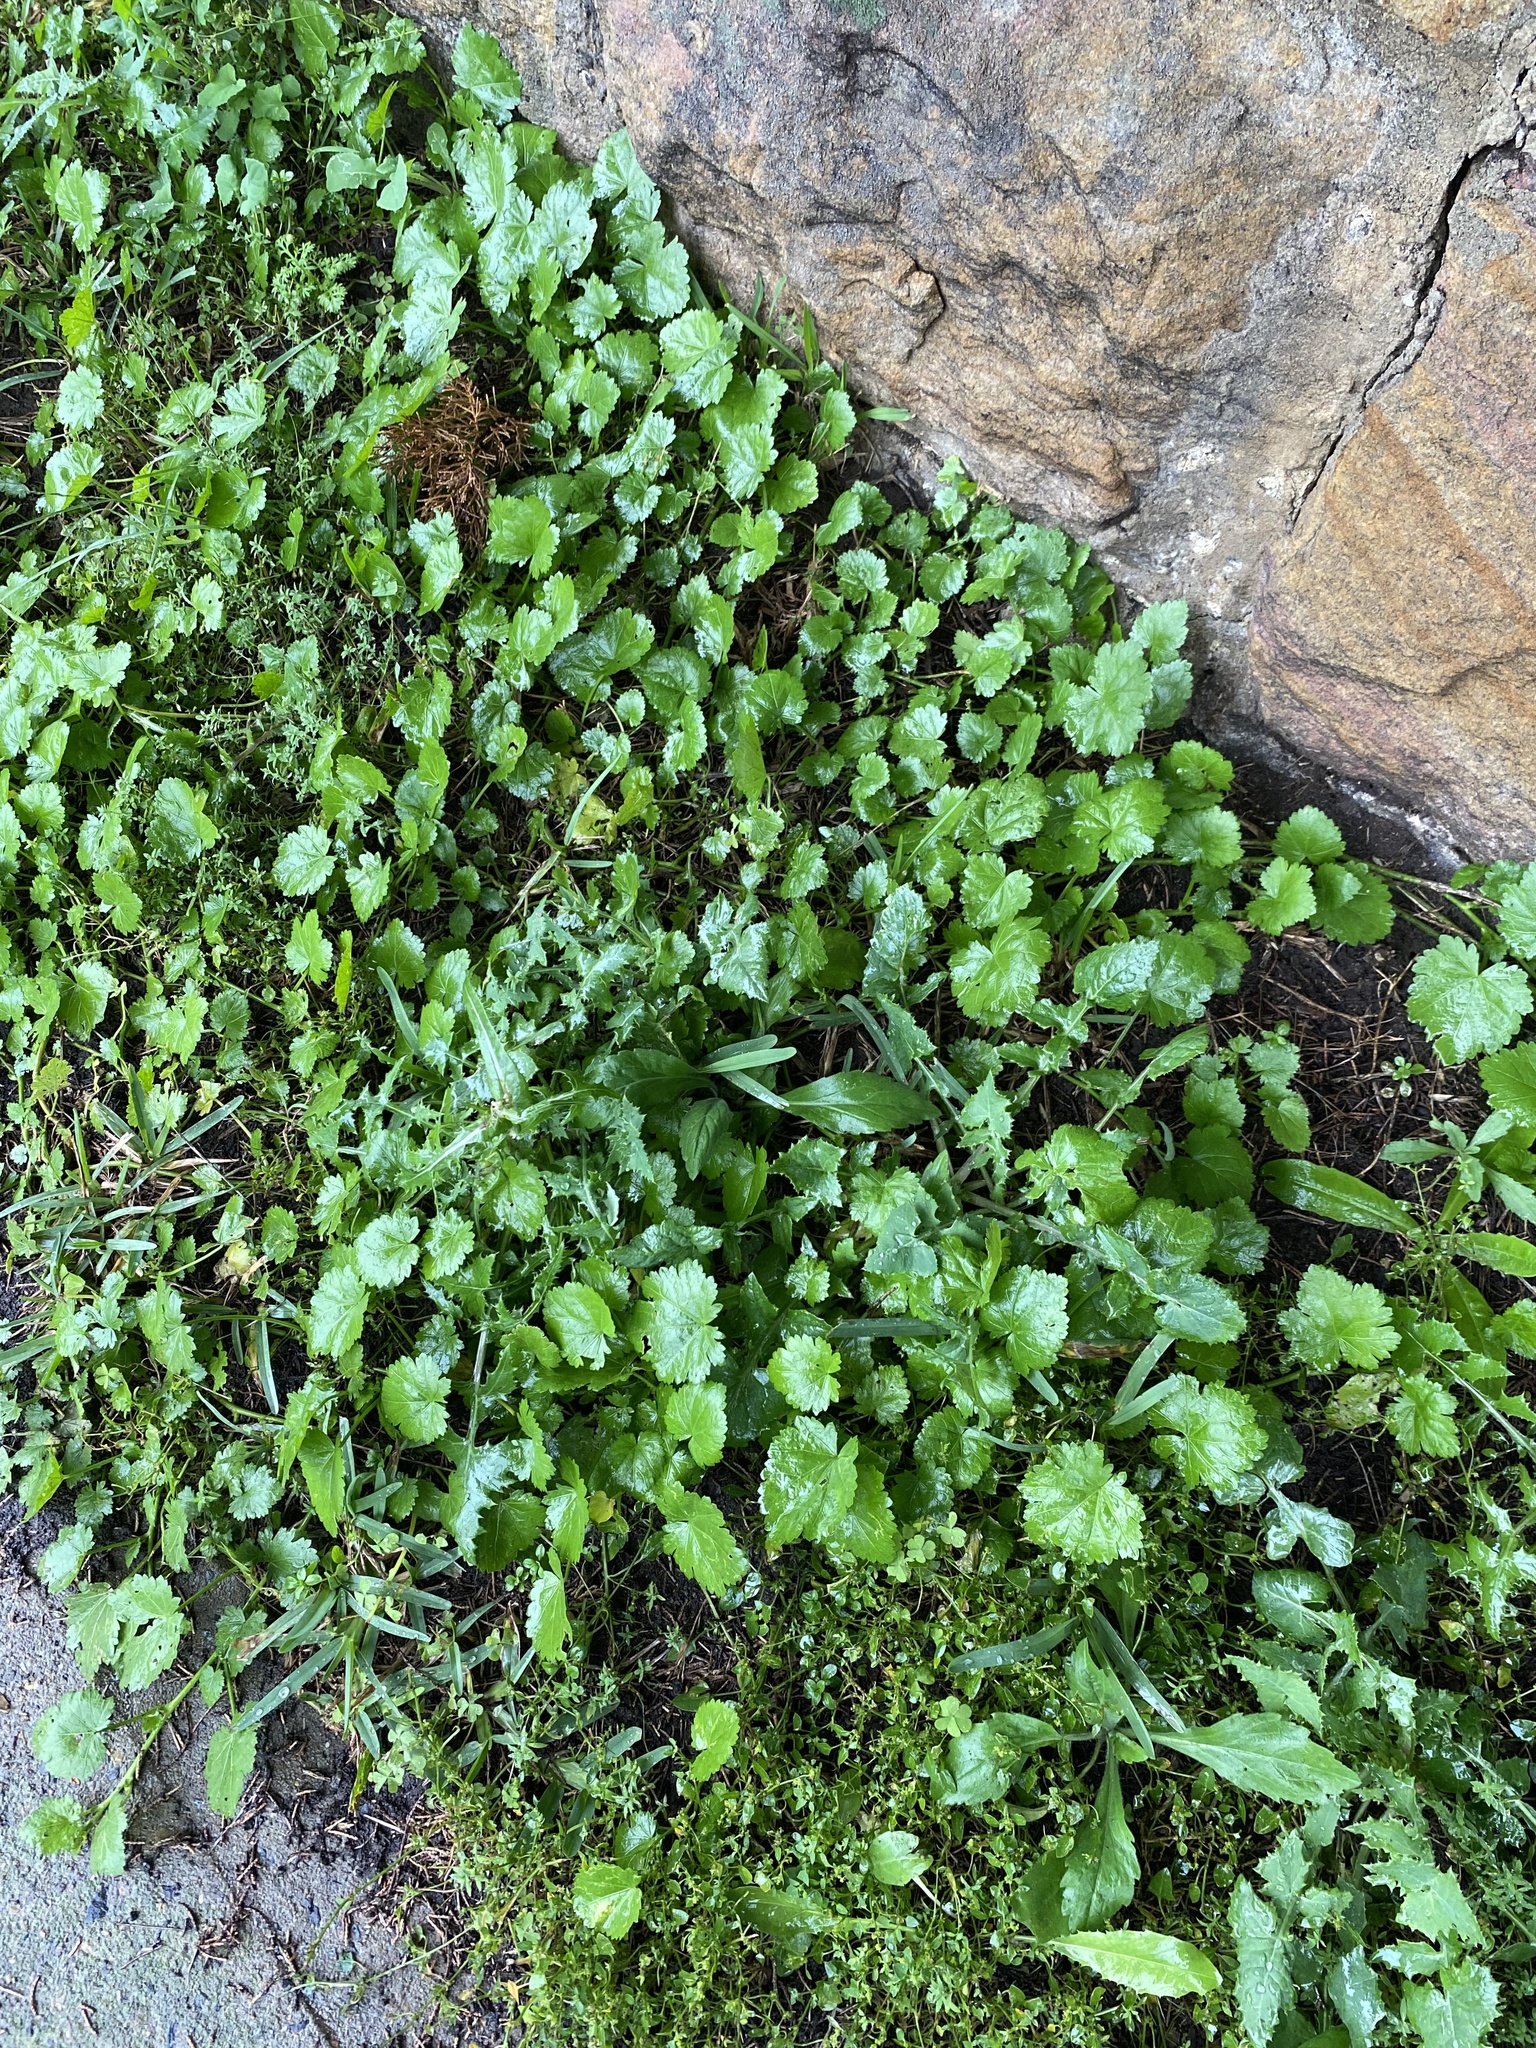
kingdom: Plantae
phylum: Tracheophyta
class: Magnoliopsida
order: Malvales
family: Malvaceae
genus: Modiola
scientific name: Modiola caroliniana
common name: Carolina bristlemallow
